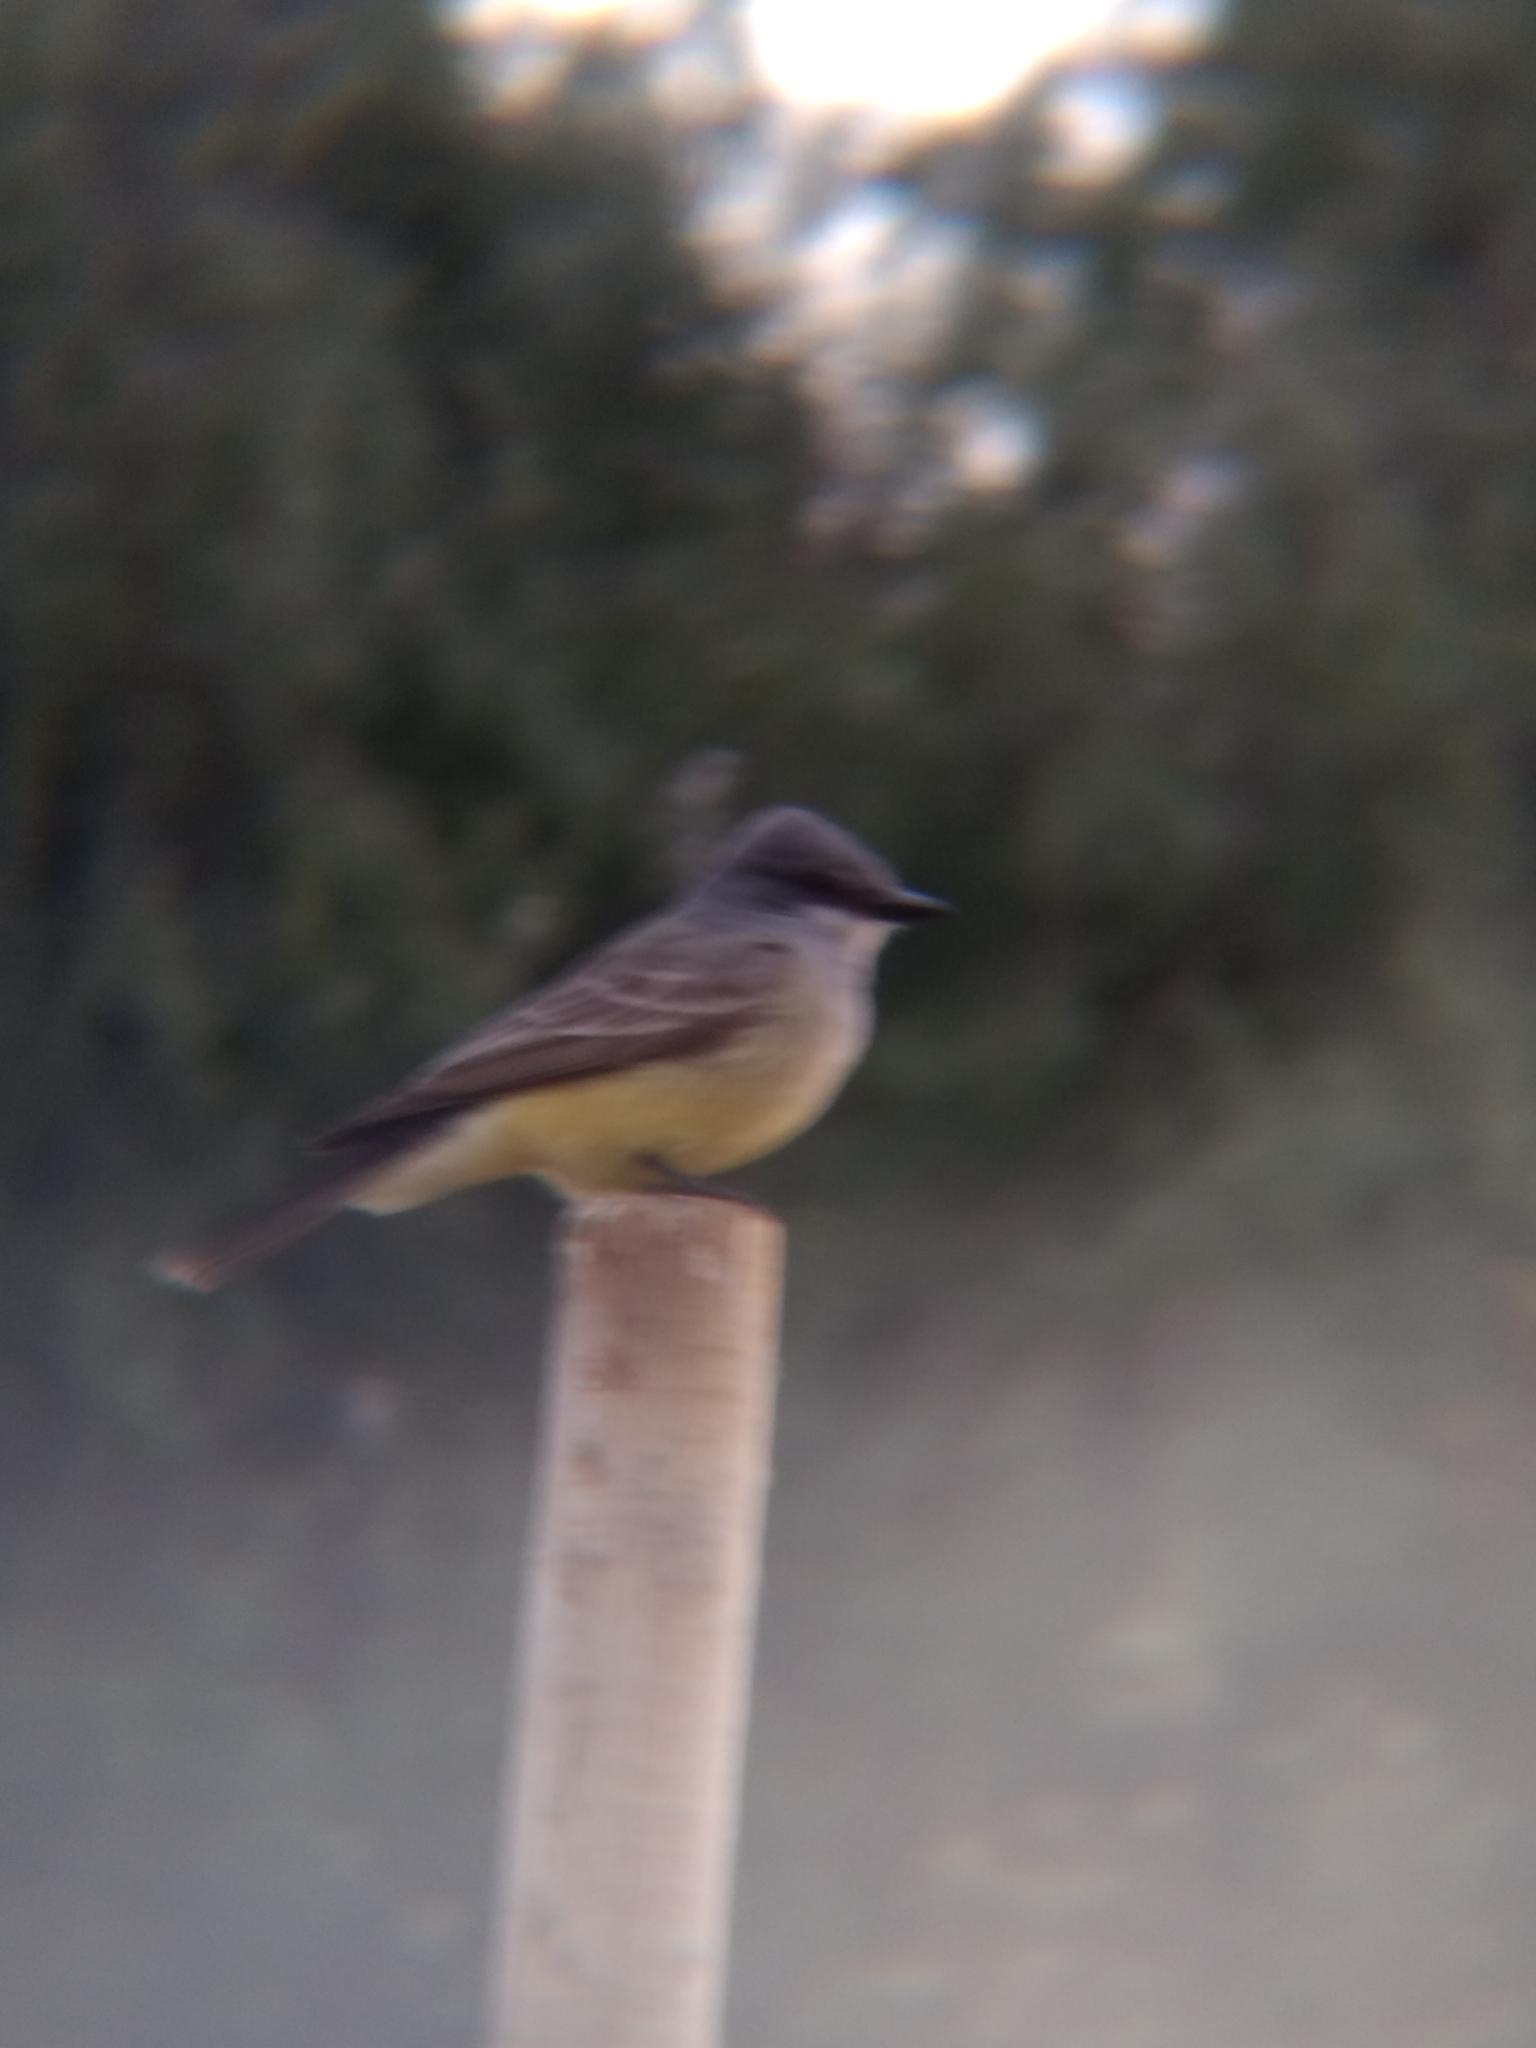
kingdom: Animalia
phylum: Chordata
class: Aves
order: Passeriformes
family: Tyrannidae
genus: Tyrannus
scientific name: Tyrannus vociferans
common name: Cassin's kingbird
